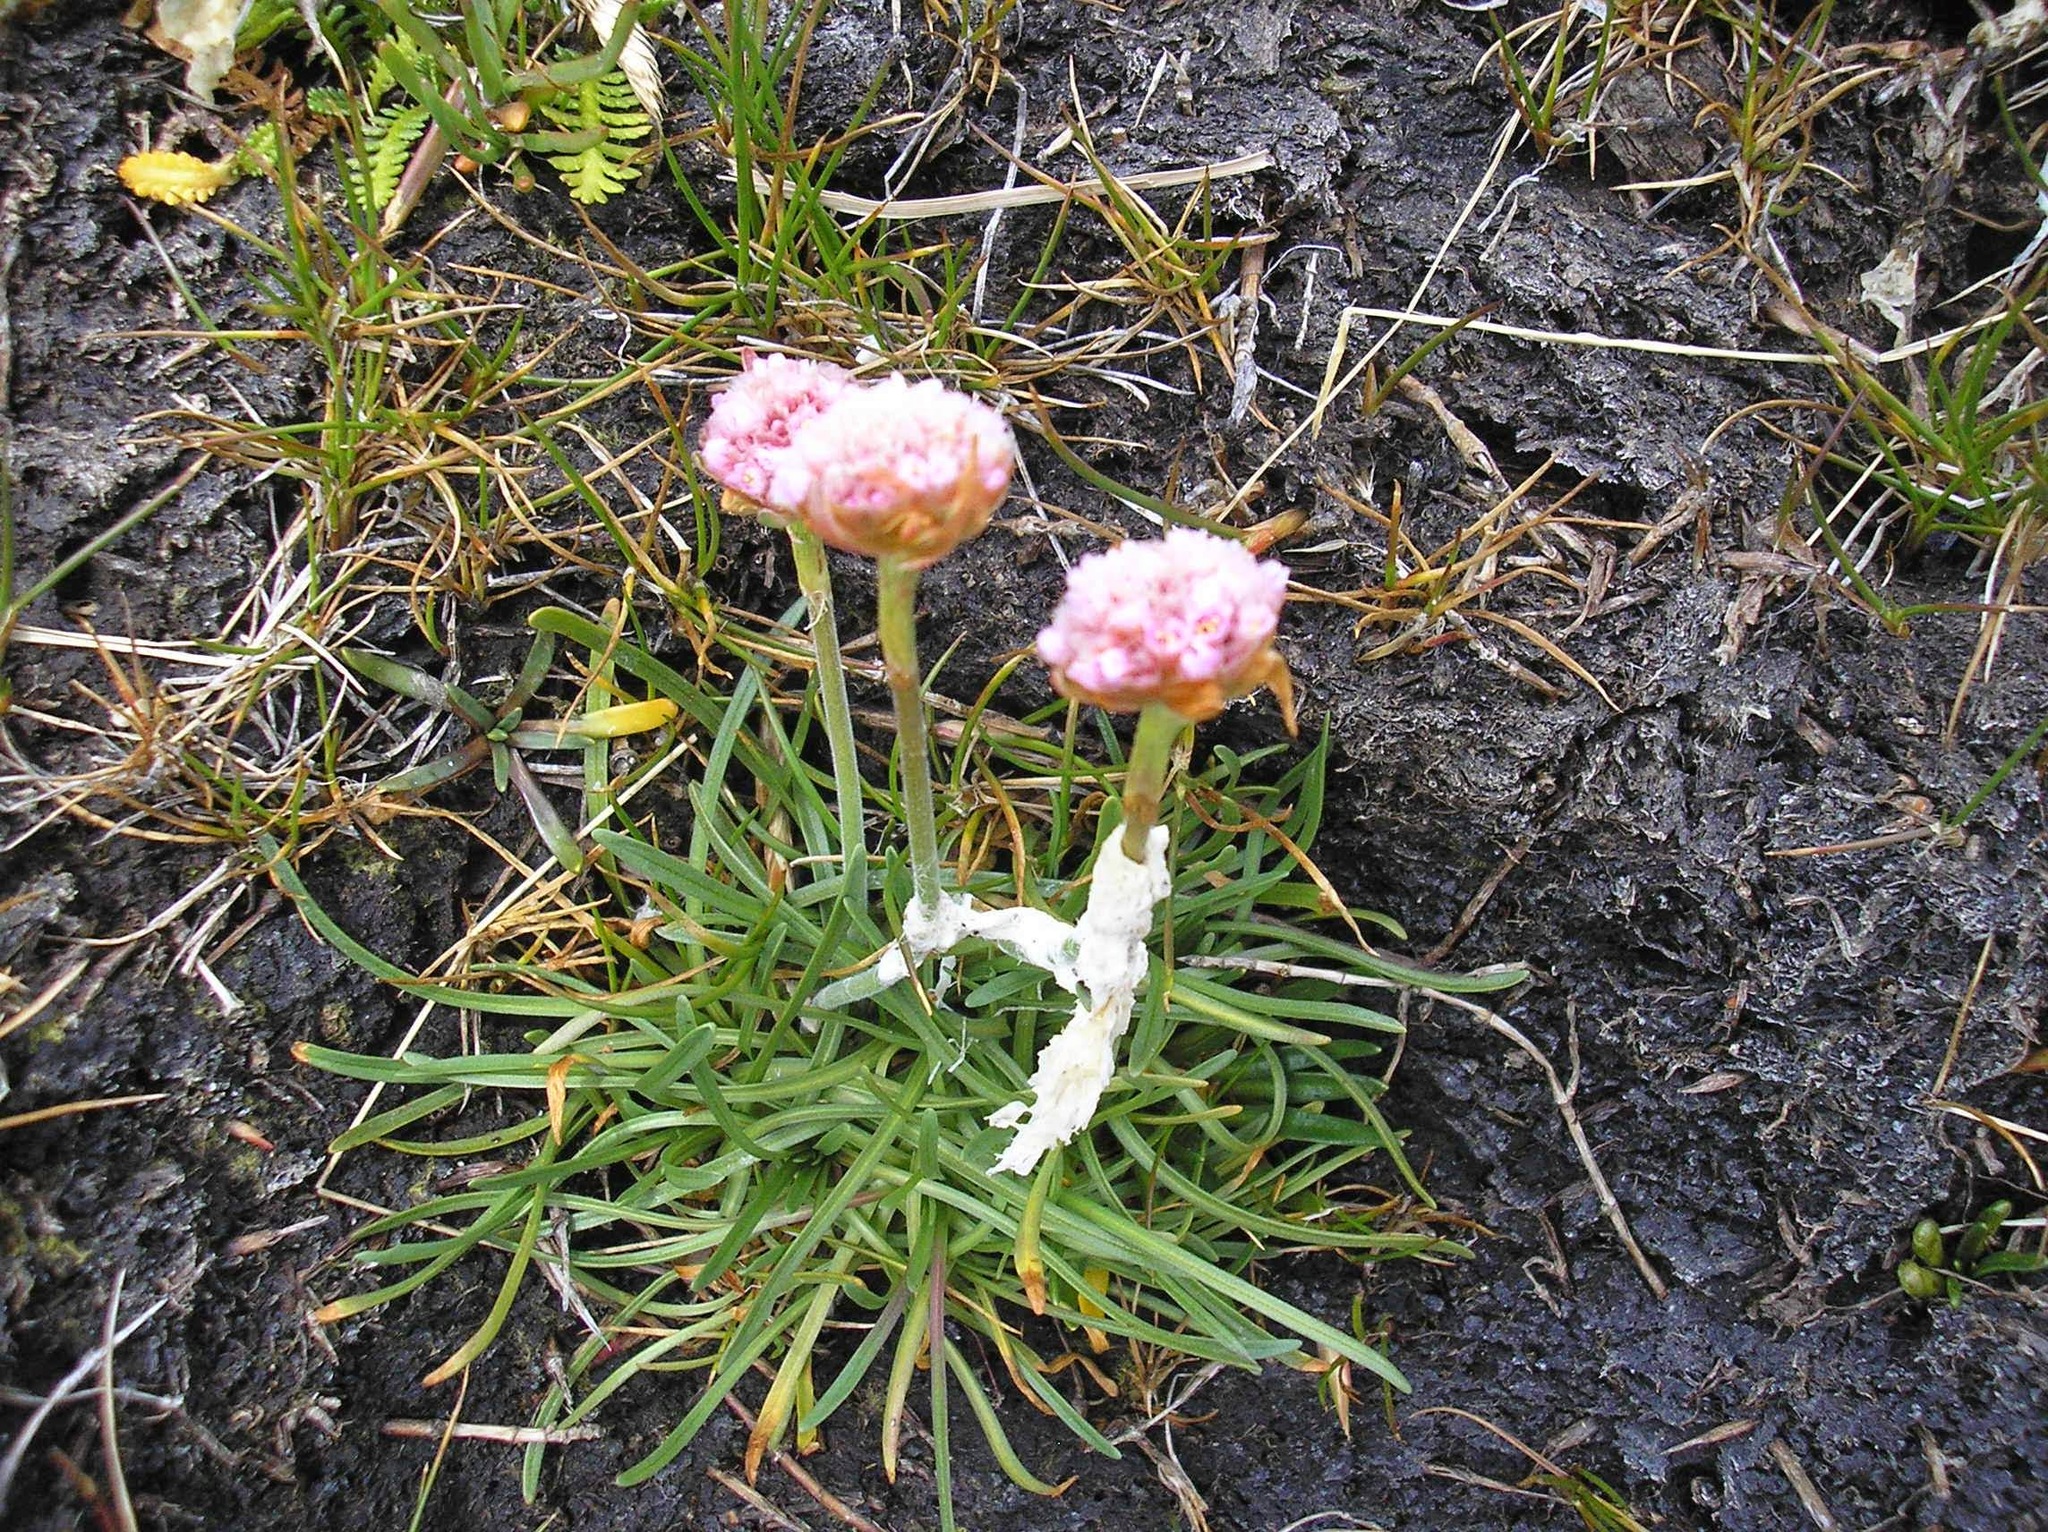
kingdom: Plantae
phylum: Tracheophyta
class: Magnoliopsida
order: Caryophyllales
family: Plumbaginaceae
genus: Armeria
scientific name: Armeria curvifolia
